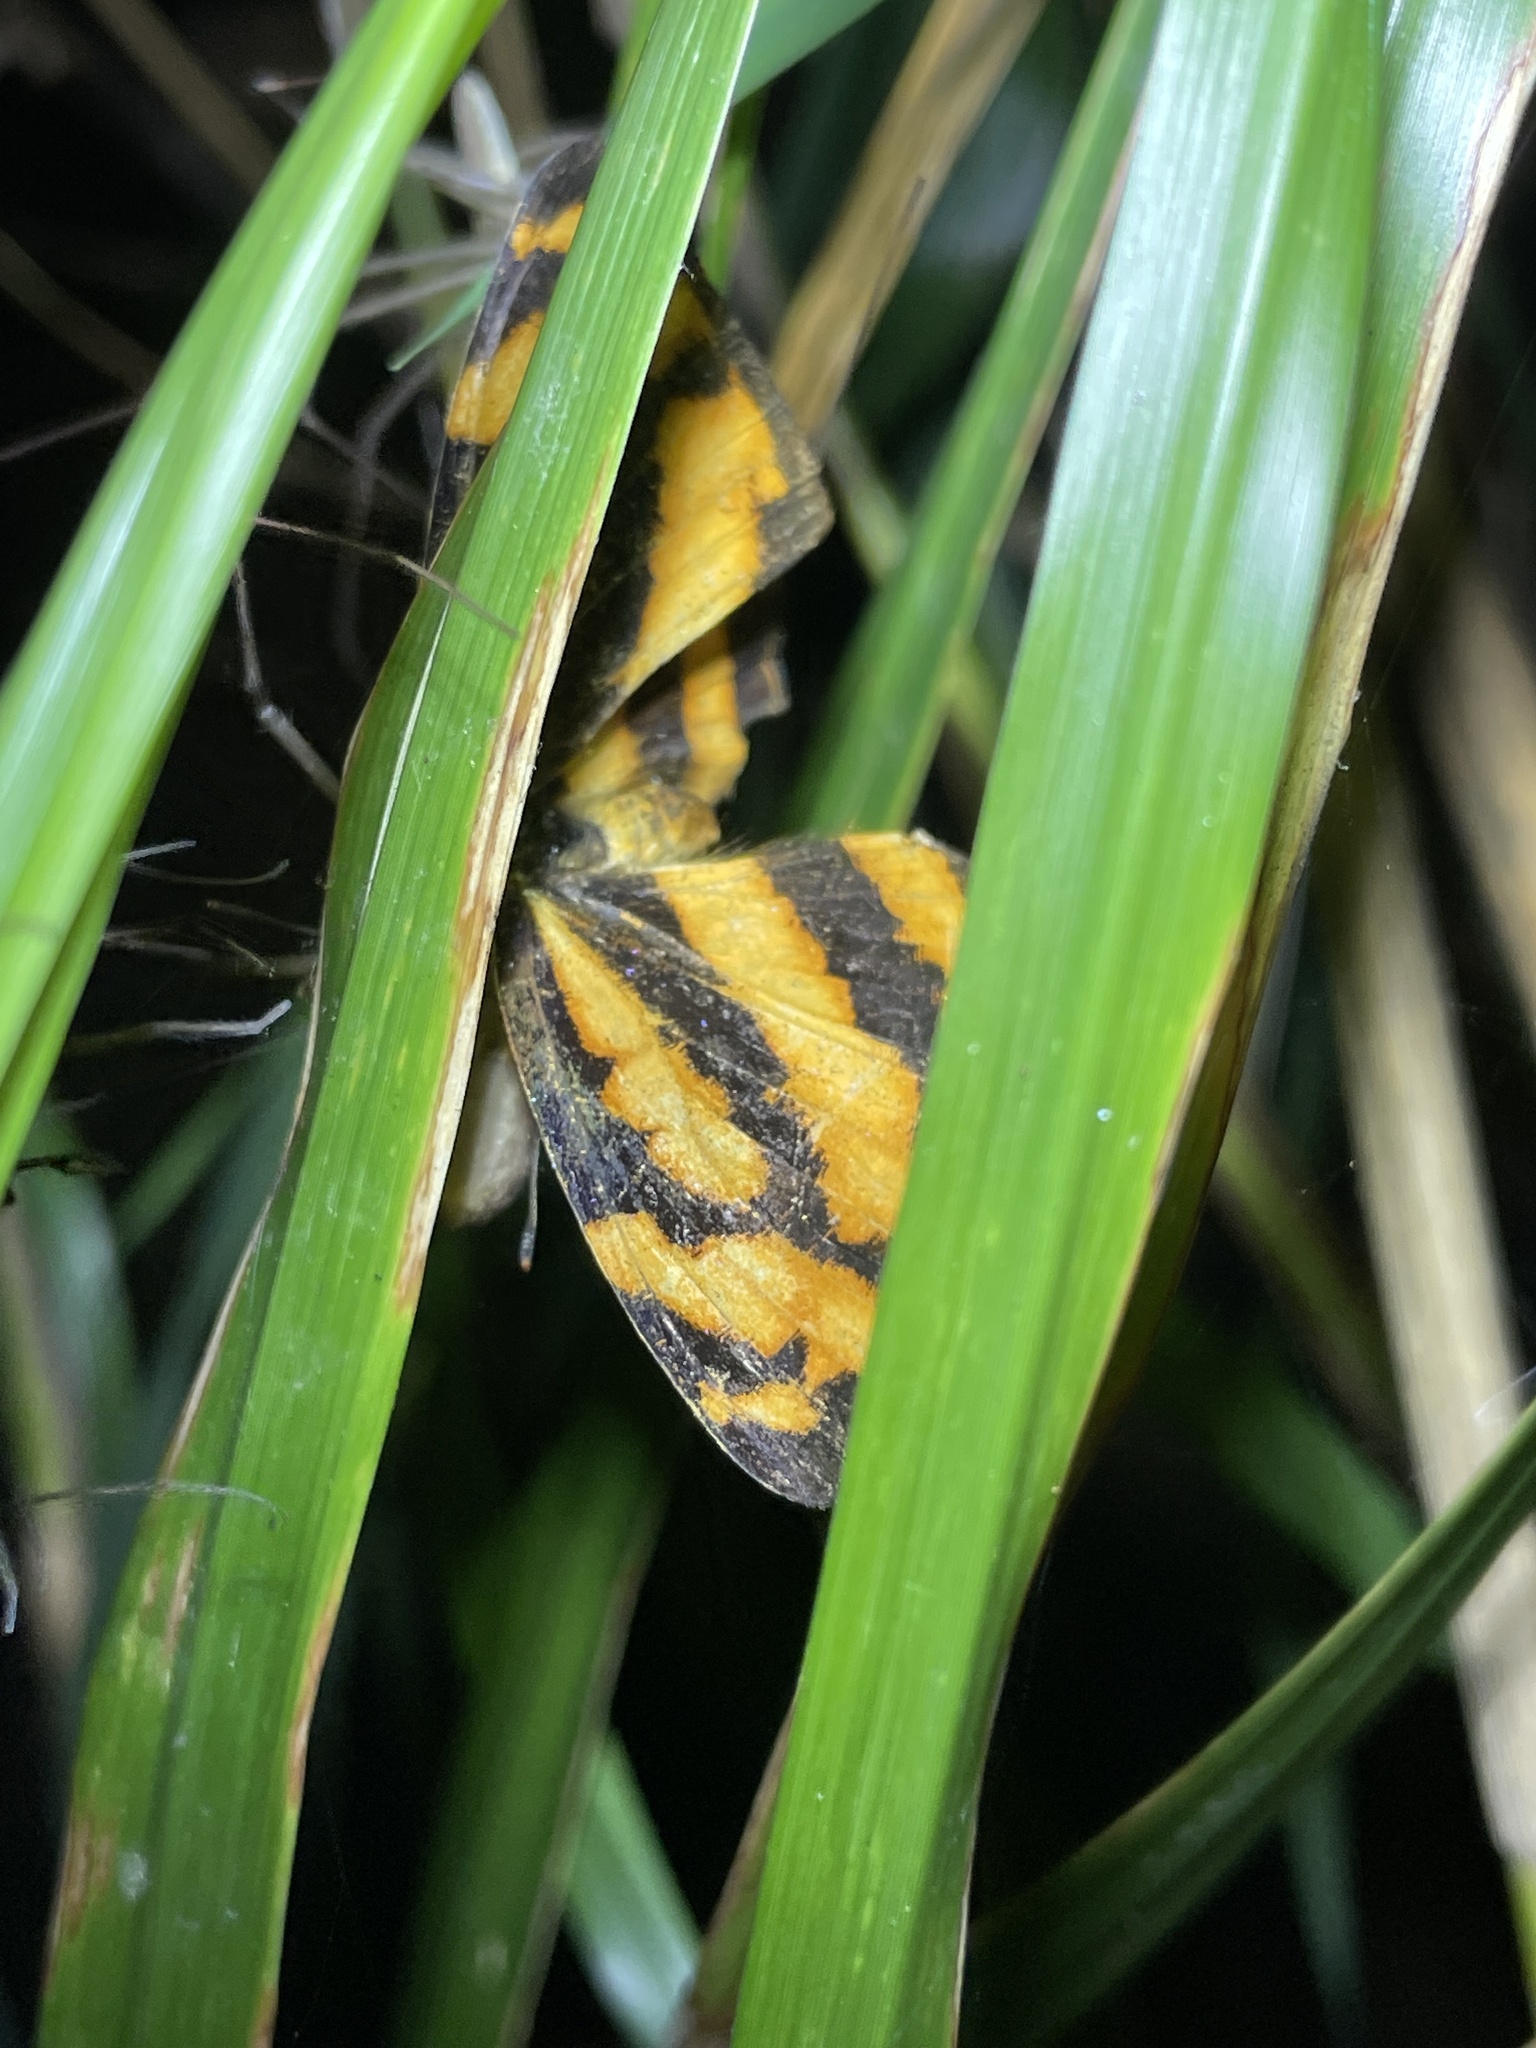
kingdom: Animalia
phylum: Arthropoda
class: Insecta
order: Lepidoptera
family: Nymphalidae
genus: Symbrenthia
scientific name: Symbrenthia hypselis
